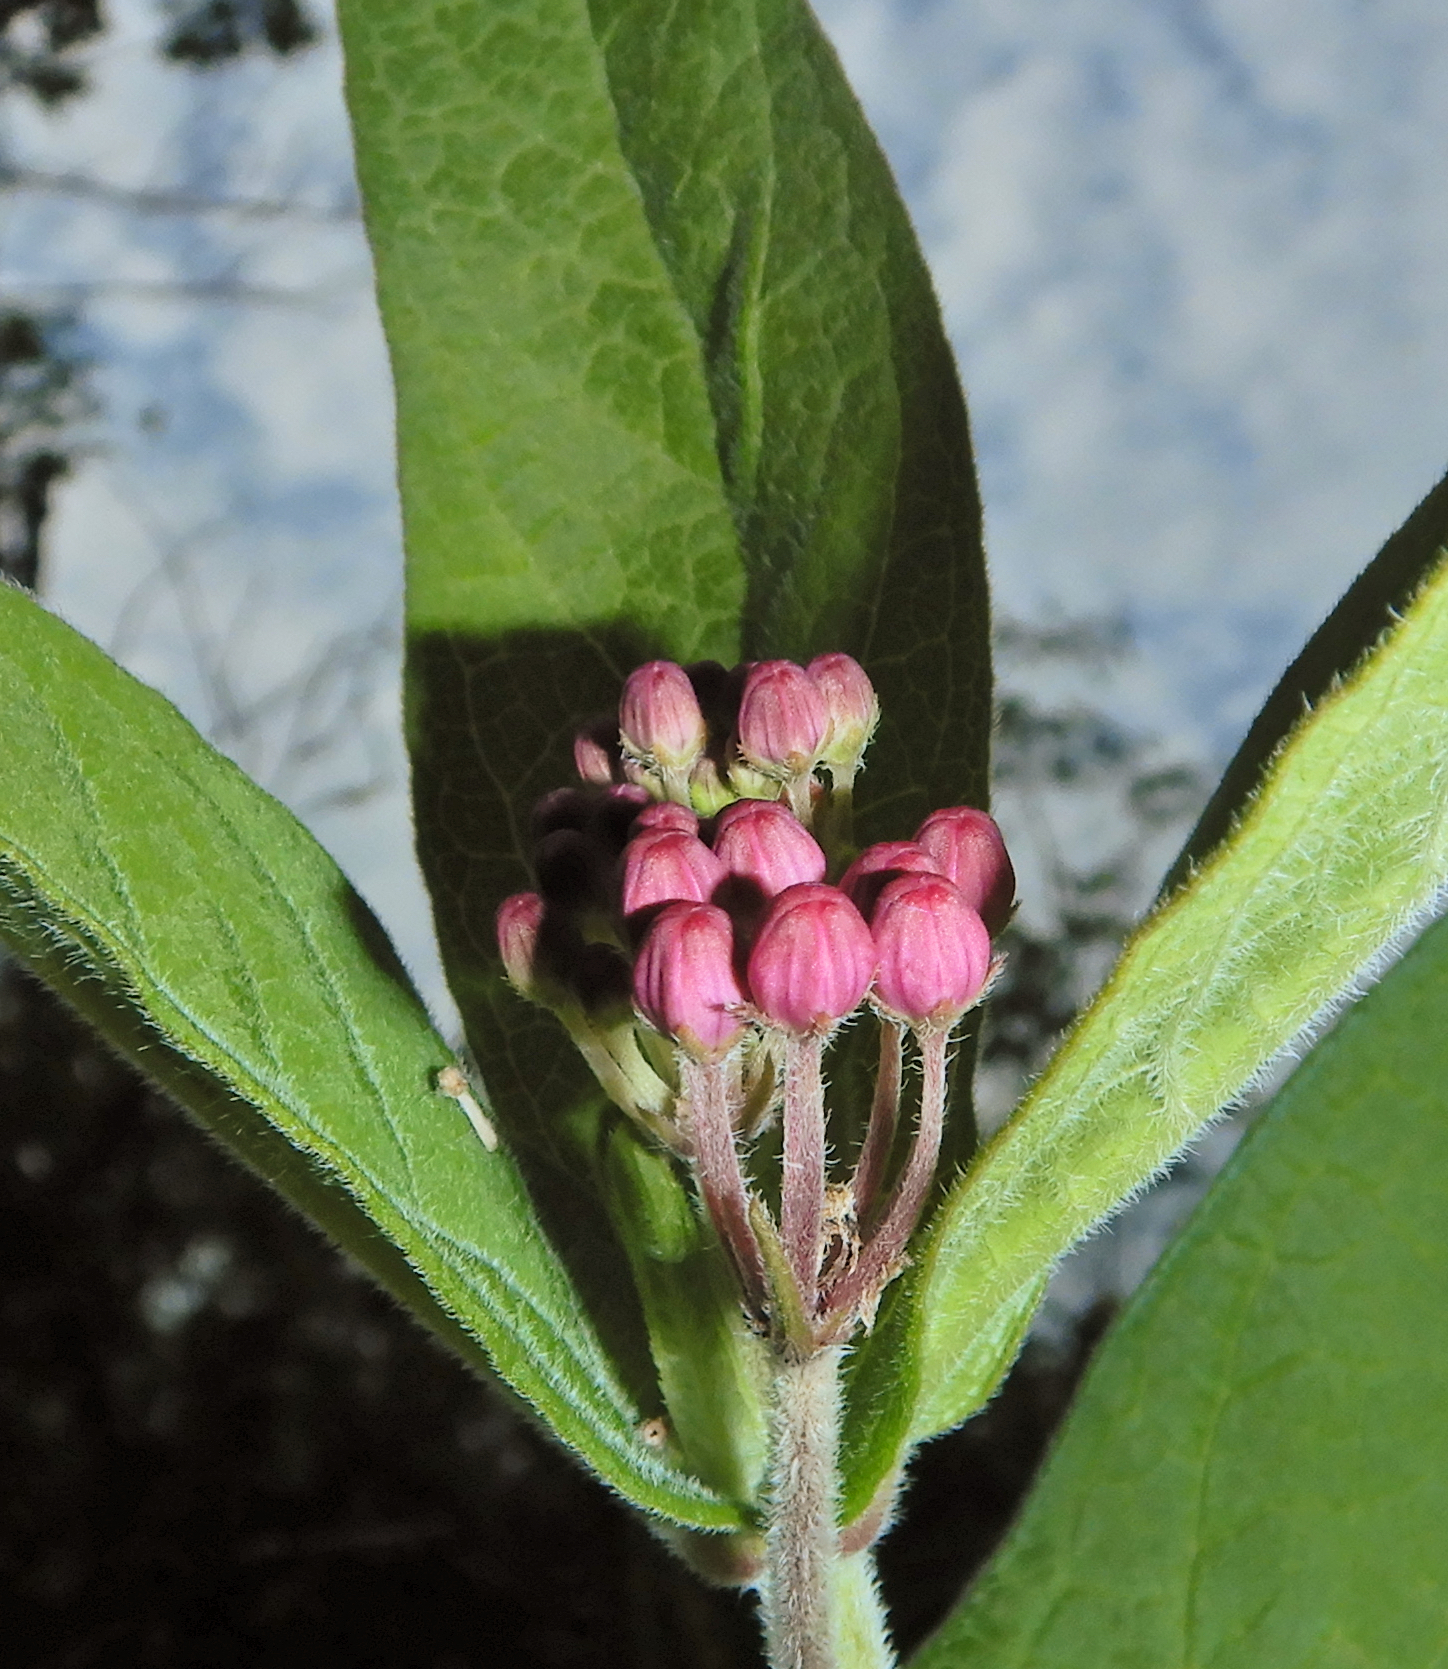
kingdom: Plantae
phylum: Tracheophyta
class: Magnoliopsida
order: Gentianales
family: Apocynaceae
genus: Asclepias
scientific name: Asclepias incarnata
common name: Swamp milkweed
